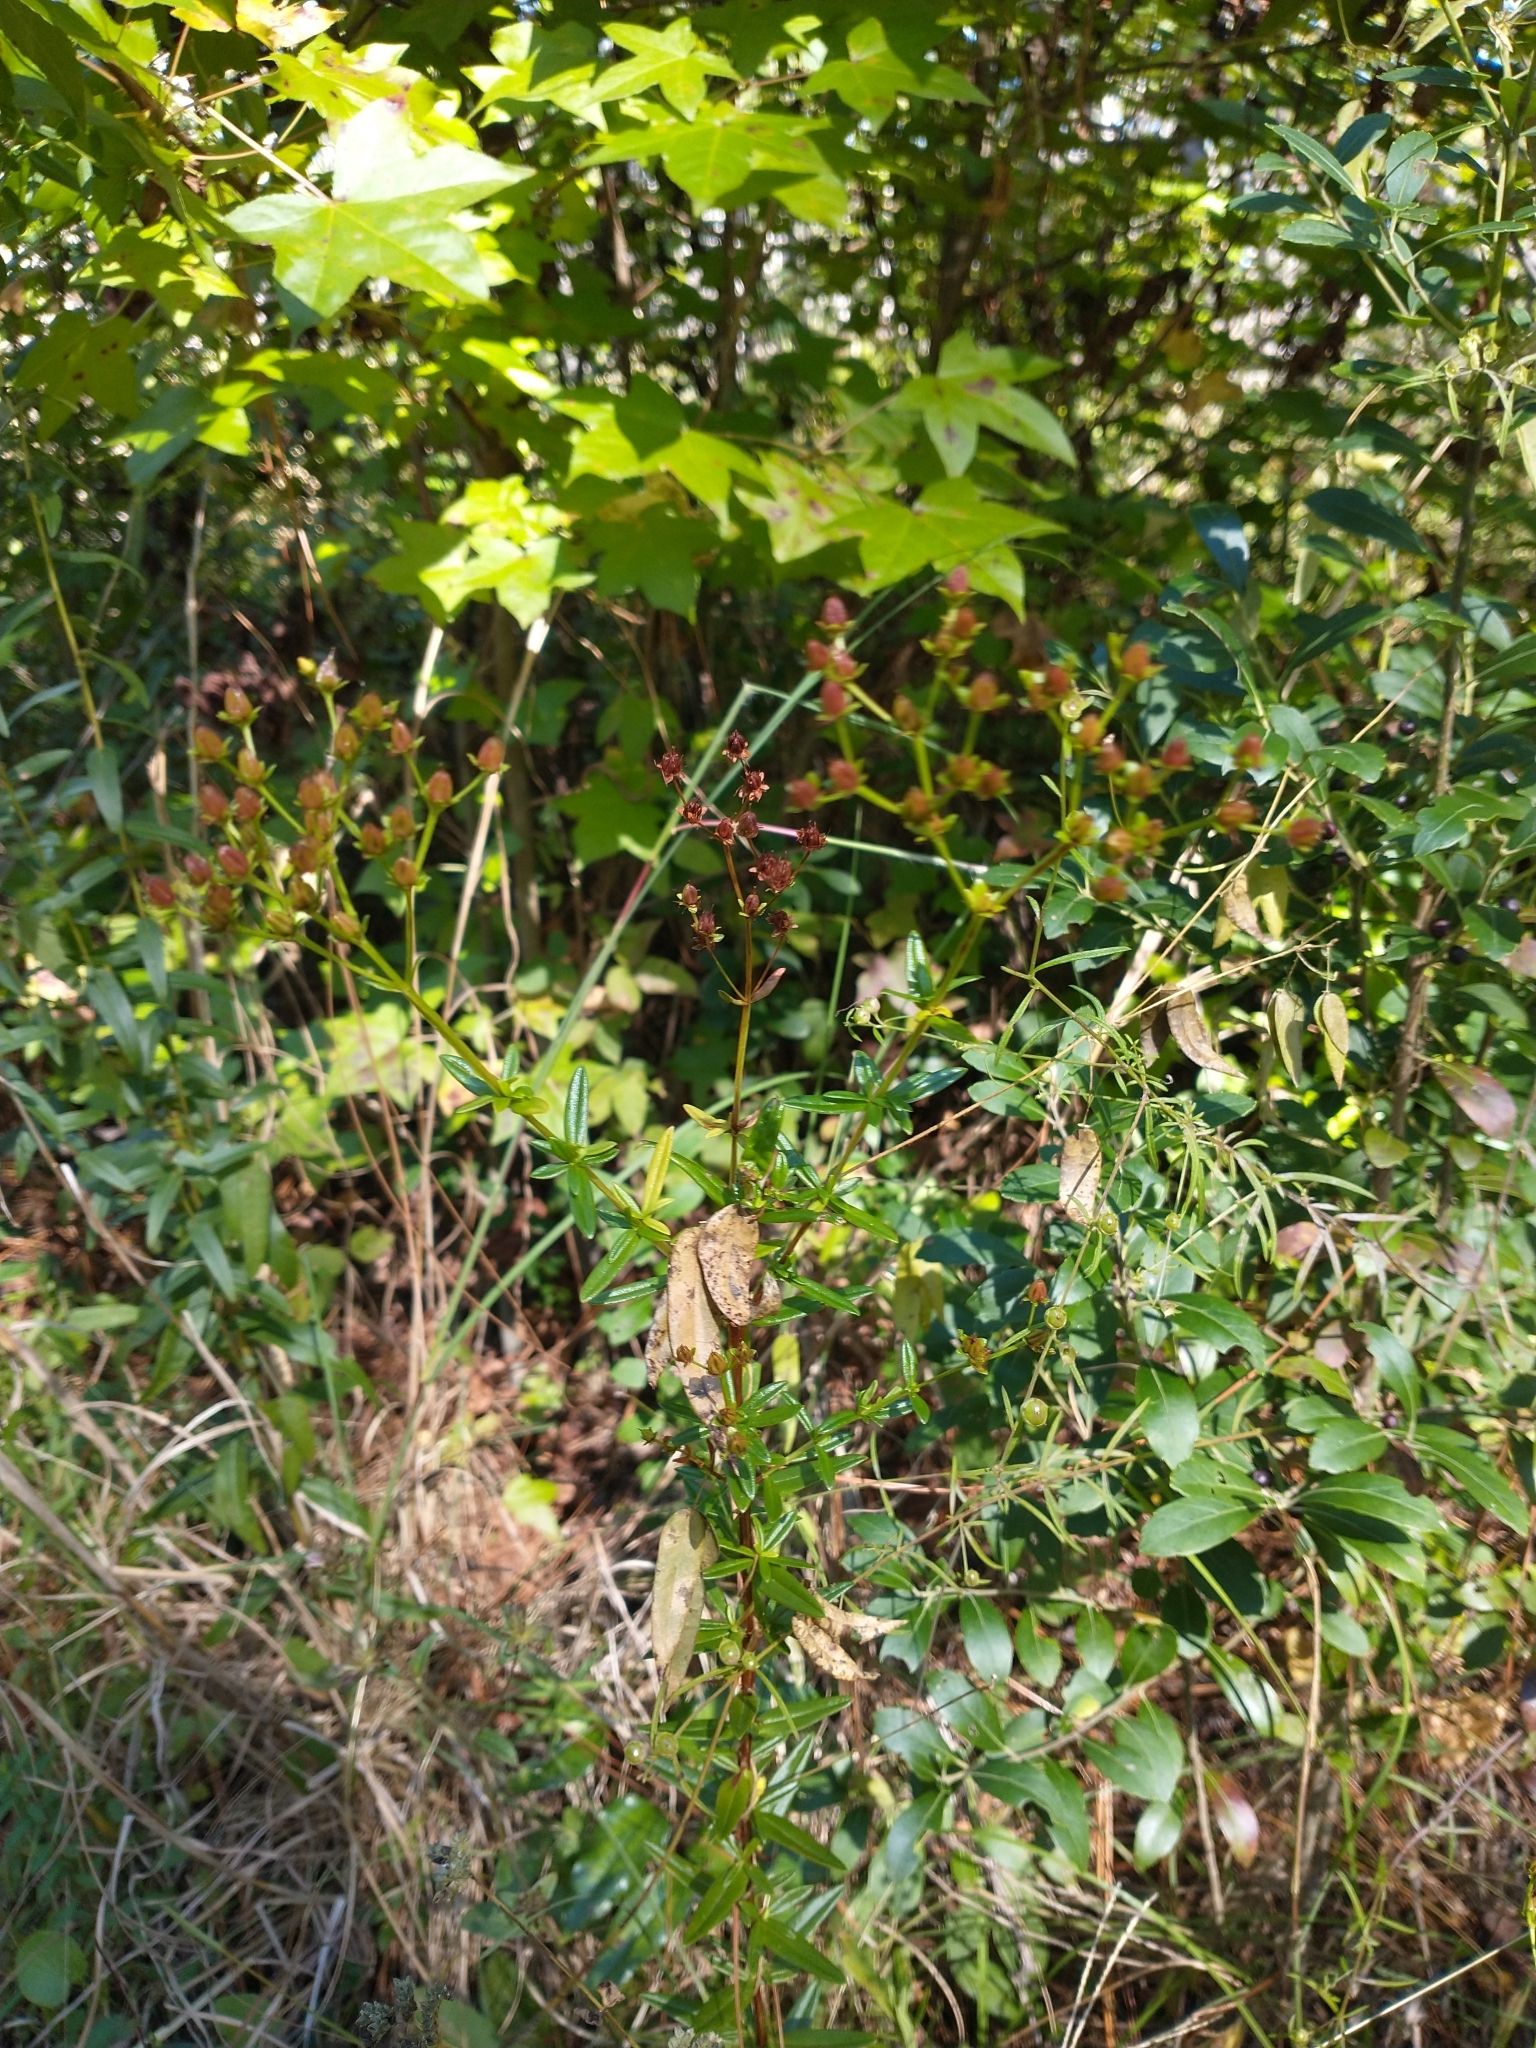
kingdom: Plantae
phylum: Tracheophyta
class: Magnoliopsida
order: Malpighiales
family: Hypericaceae
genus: Hypericum
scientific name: Hypericum cistifolium
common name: Round-pod st. john's-wort
